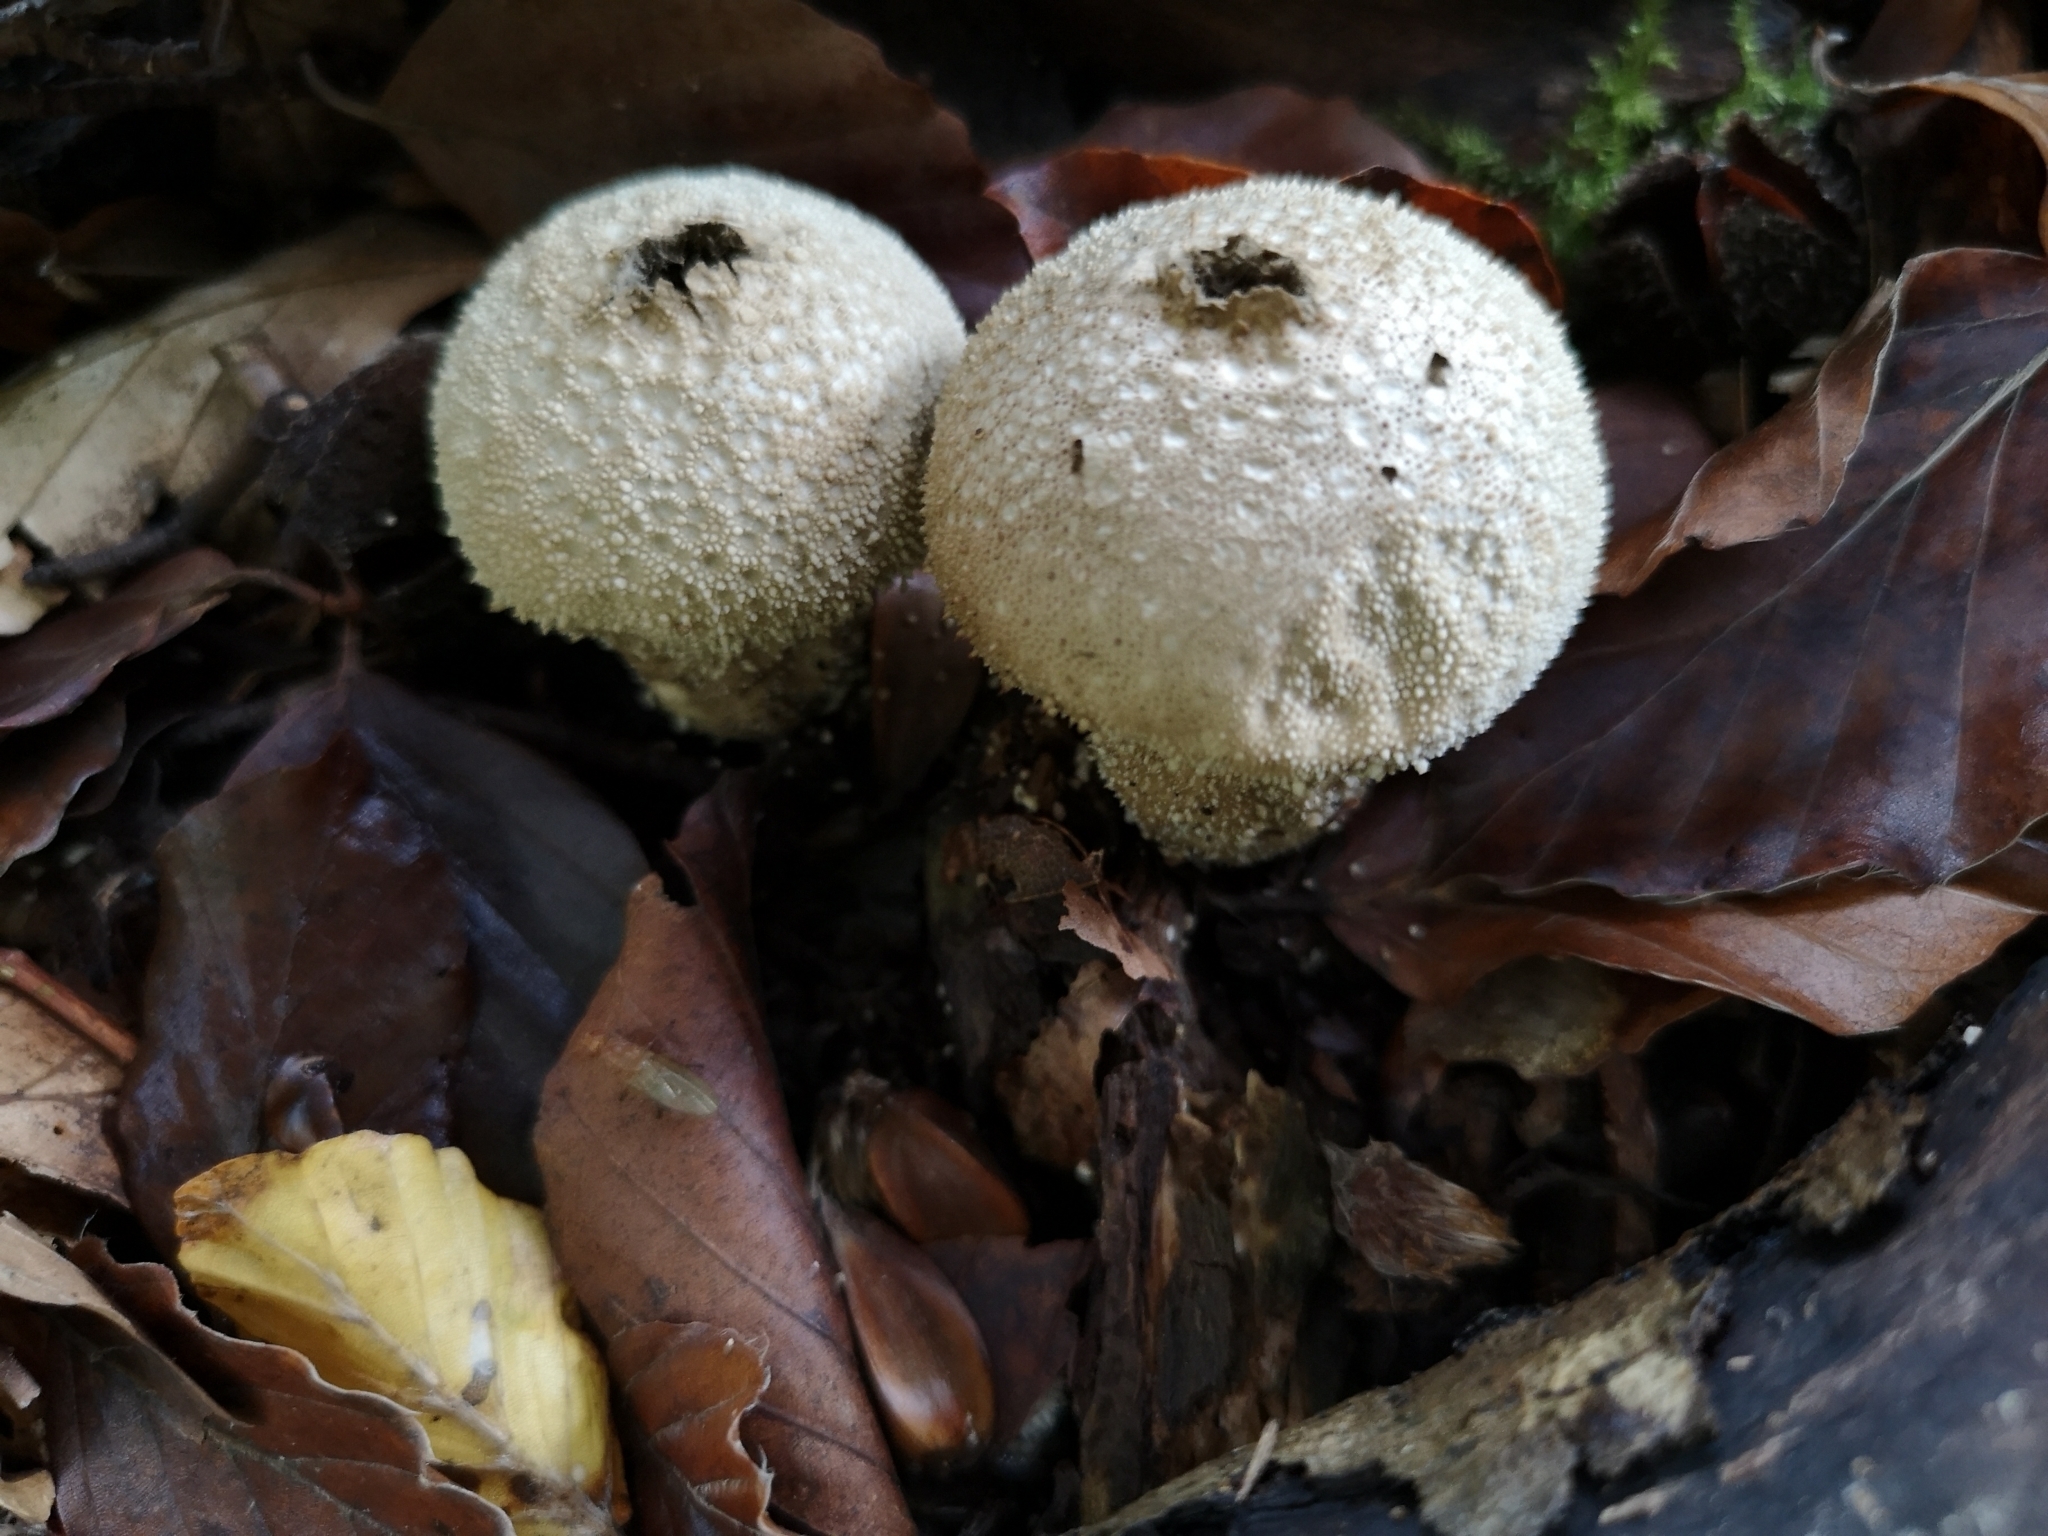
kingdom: Fungi
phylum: Basidiomycota
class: Agaricomycetes
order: Agaricales
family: Lycoperdaceae
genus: Lycoperdon
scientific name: Lycoperdon perlatum
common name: Common puffball
